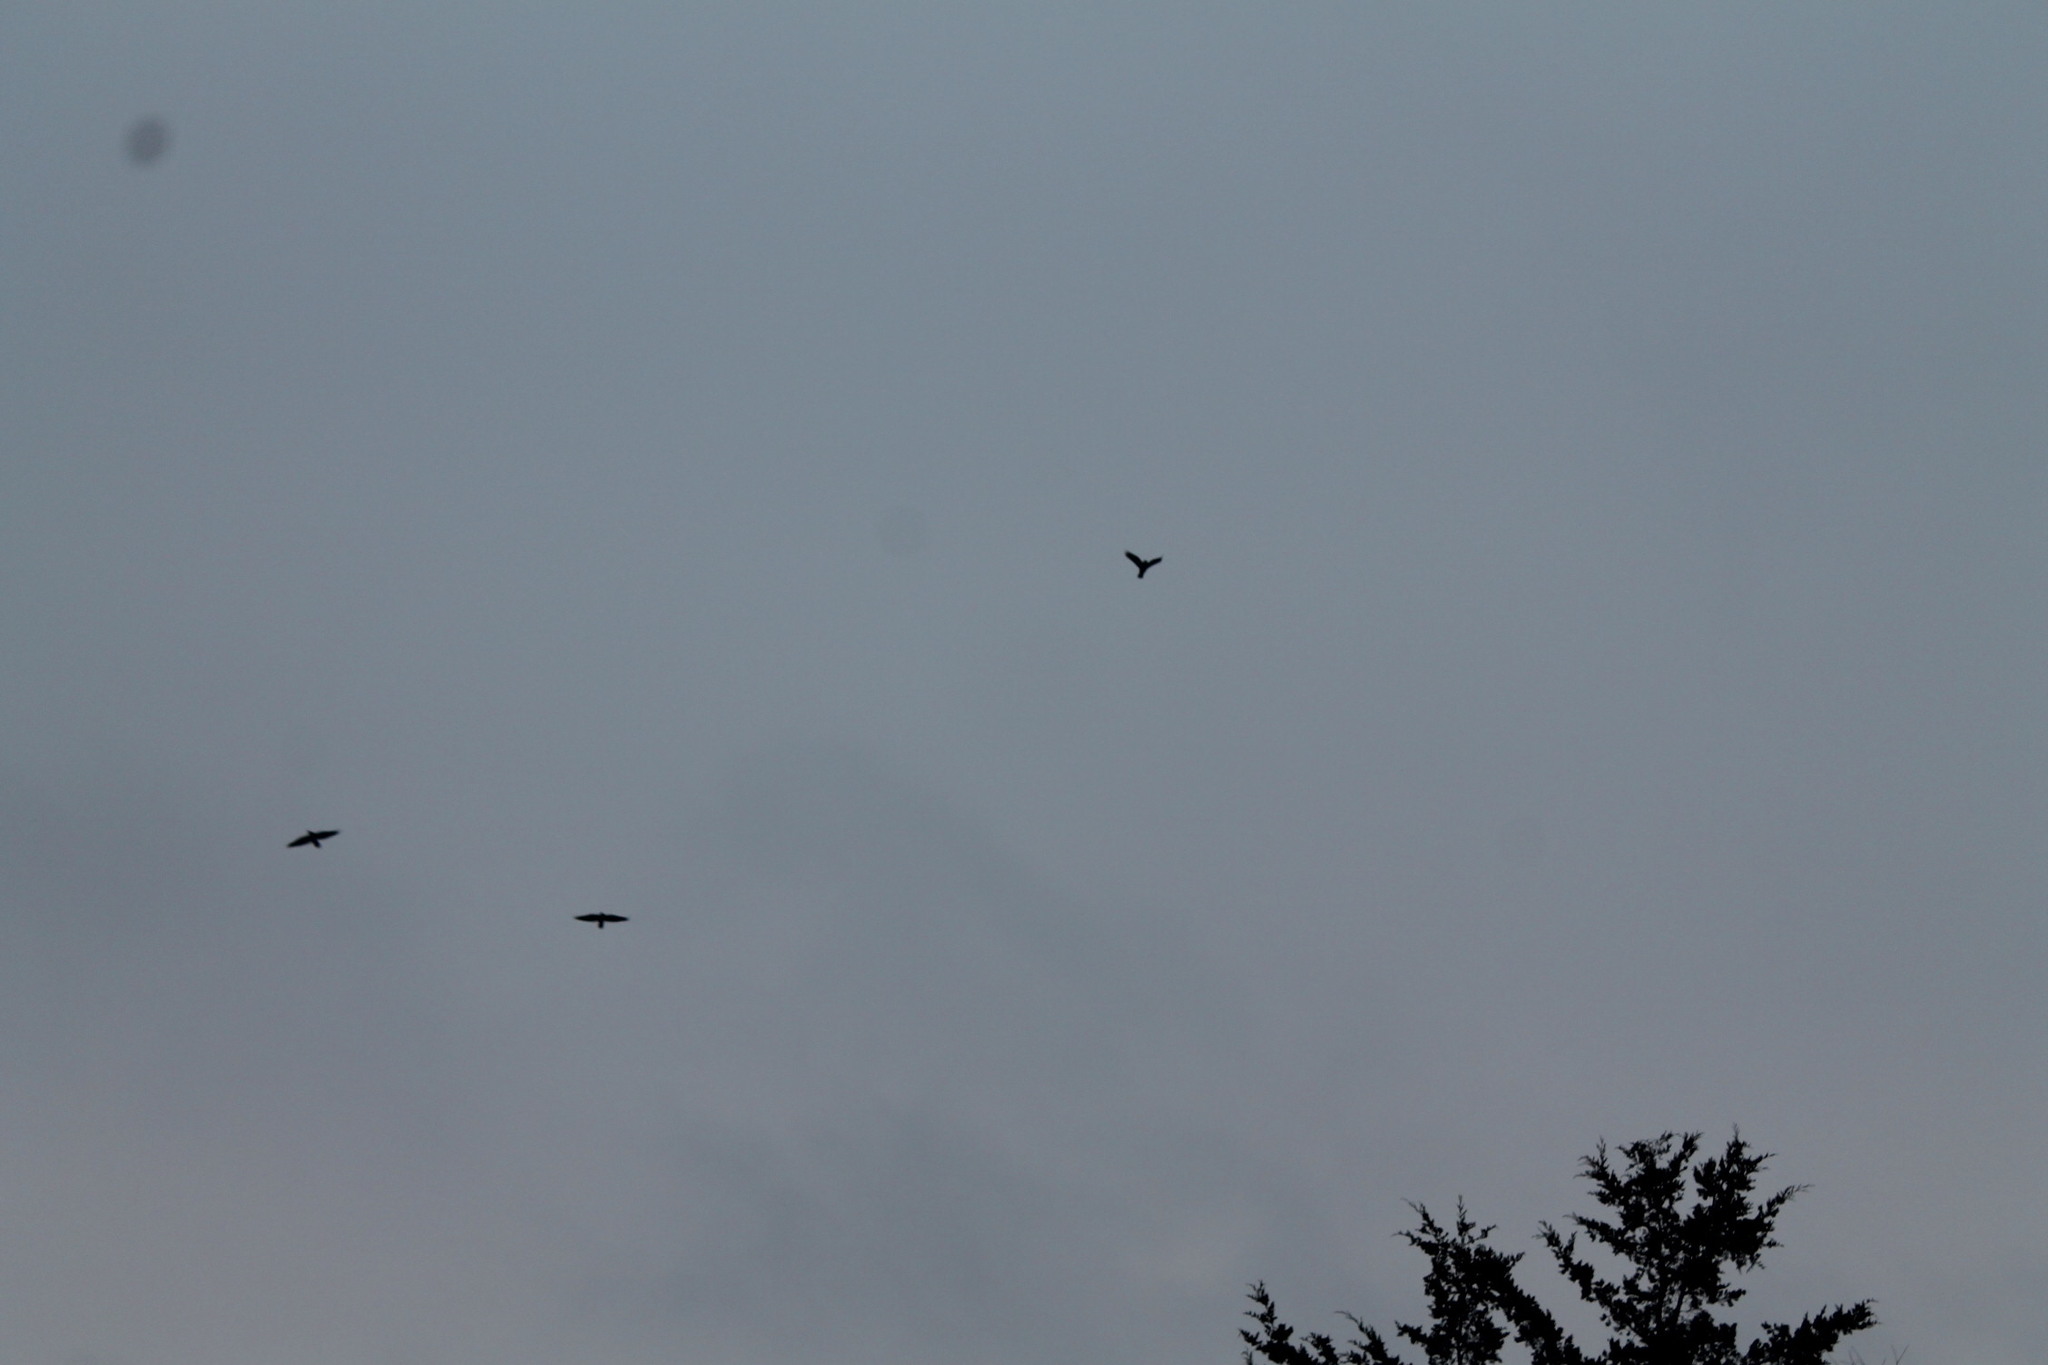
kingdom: Animalia
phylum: Chordata
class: Aves
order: Passeriformes
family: Corvidae
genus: Corvus
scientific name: Corvus brachyrhynchos
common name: American crow
